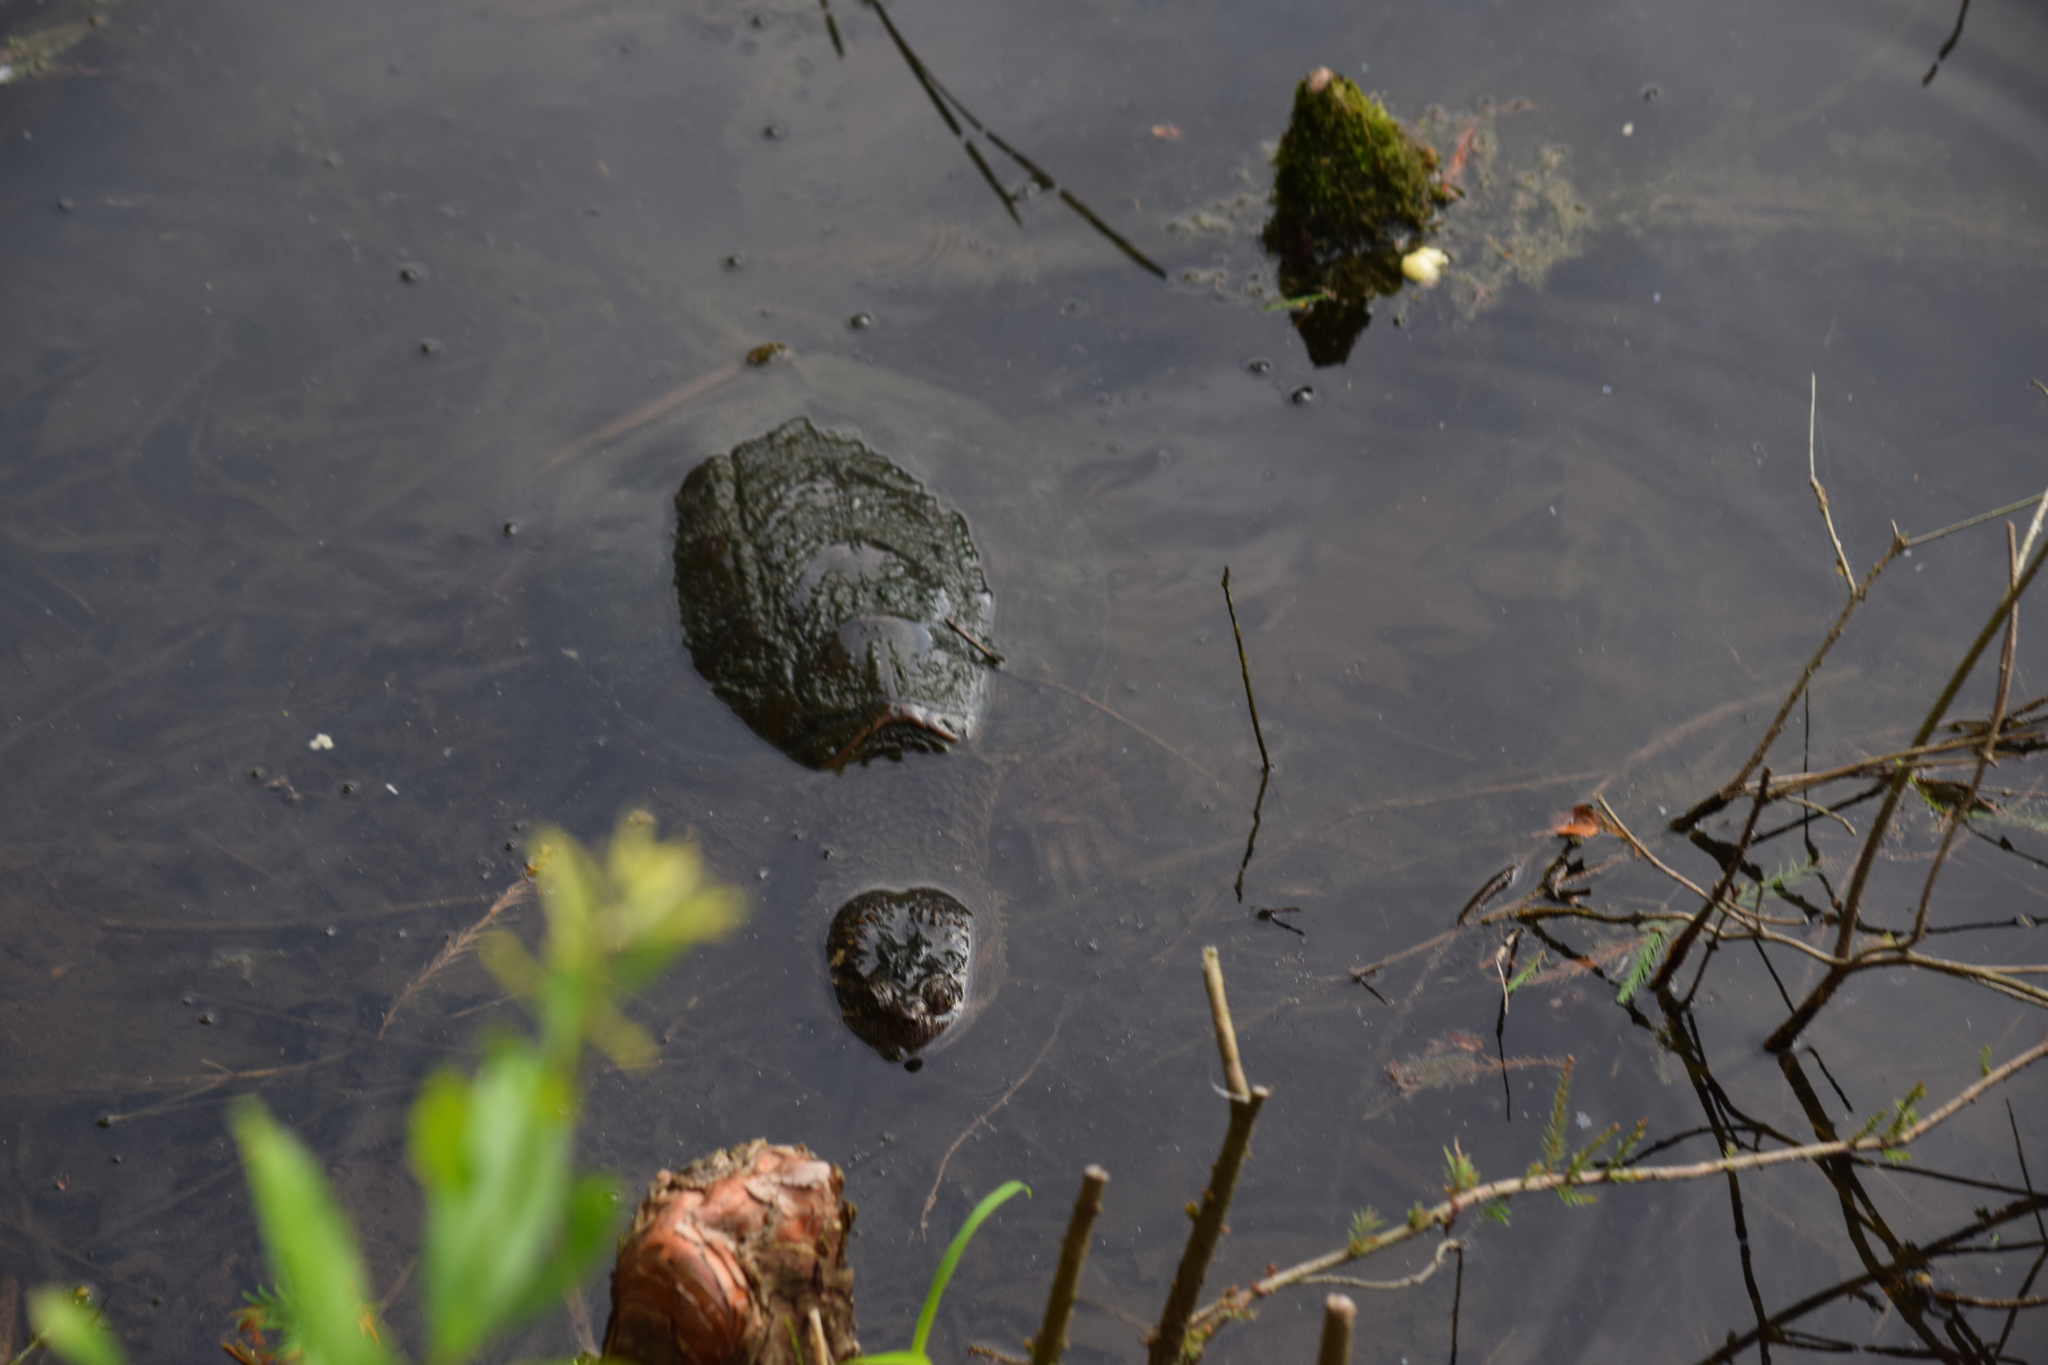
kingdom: Animalia
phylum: Chordata
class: Testudines
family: Chelydridae
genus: Chelydra
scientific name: Chelydra serpentina
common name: Common snapping turtle
